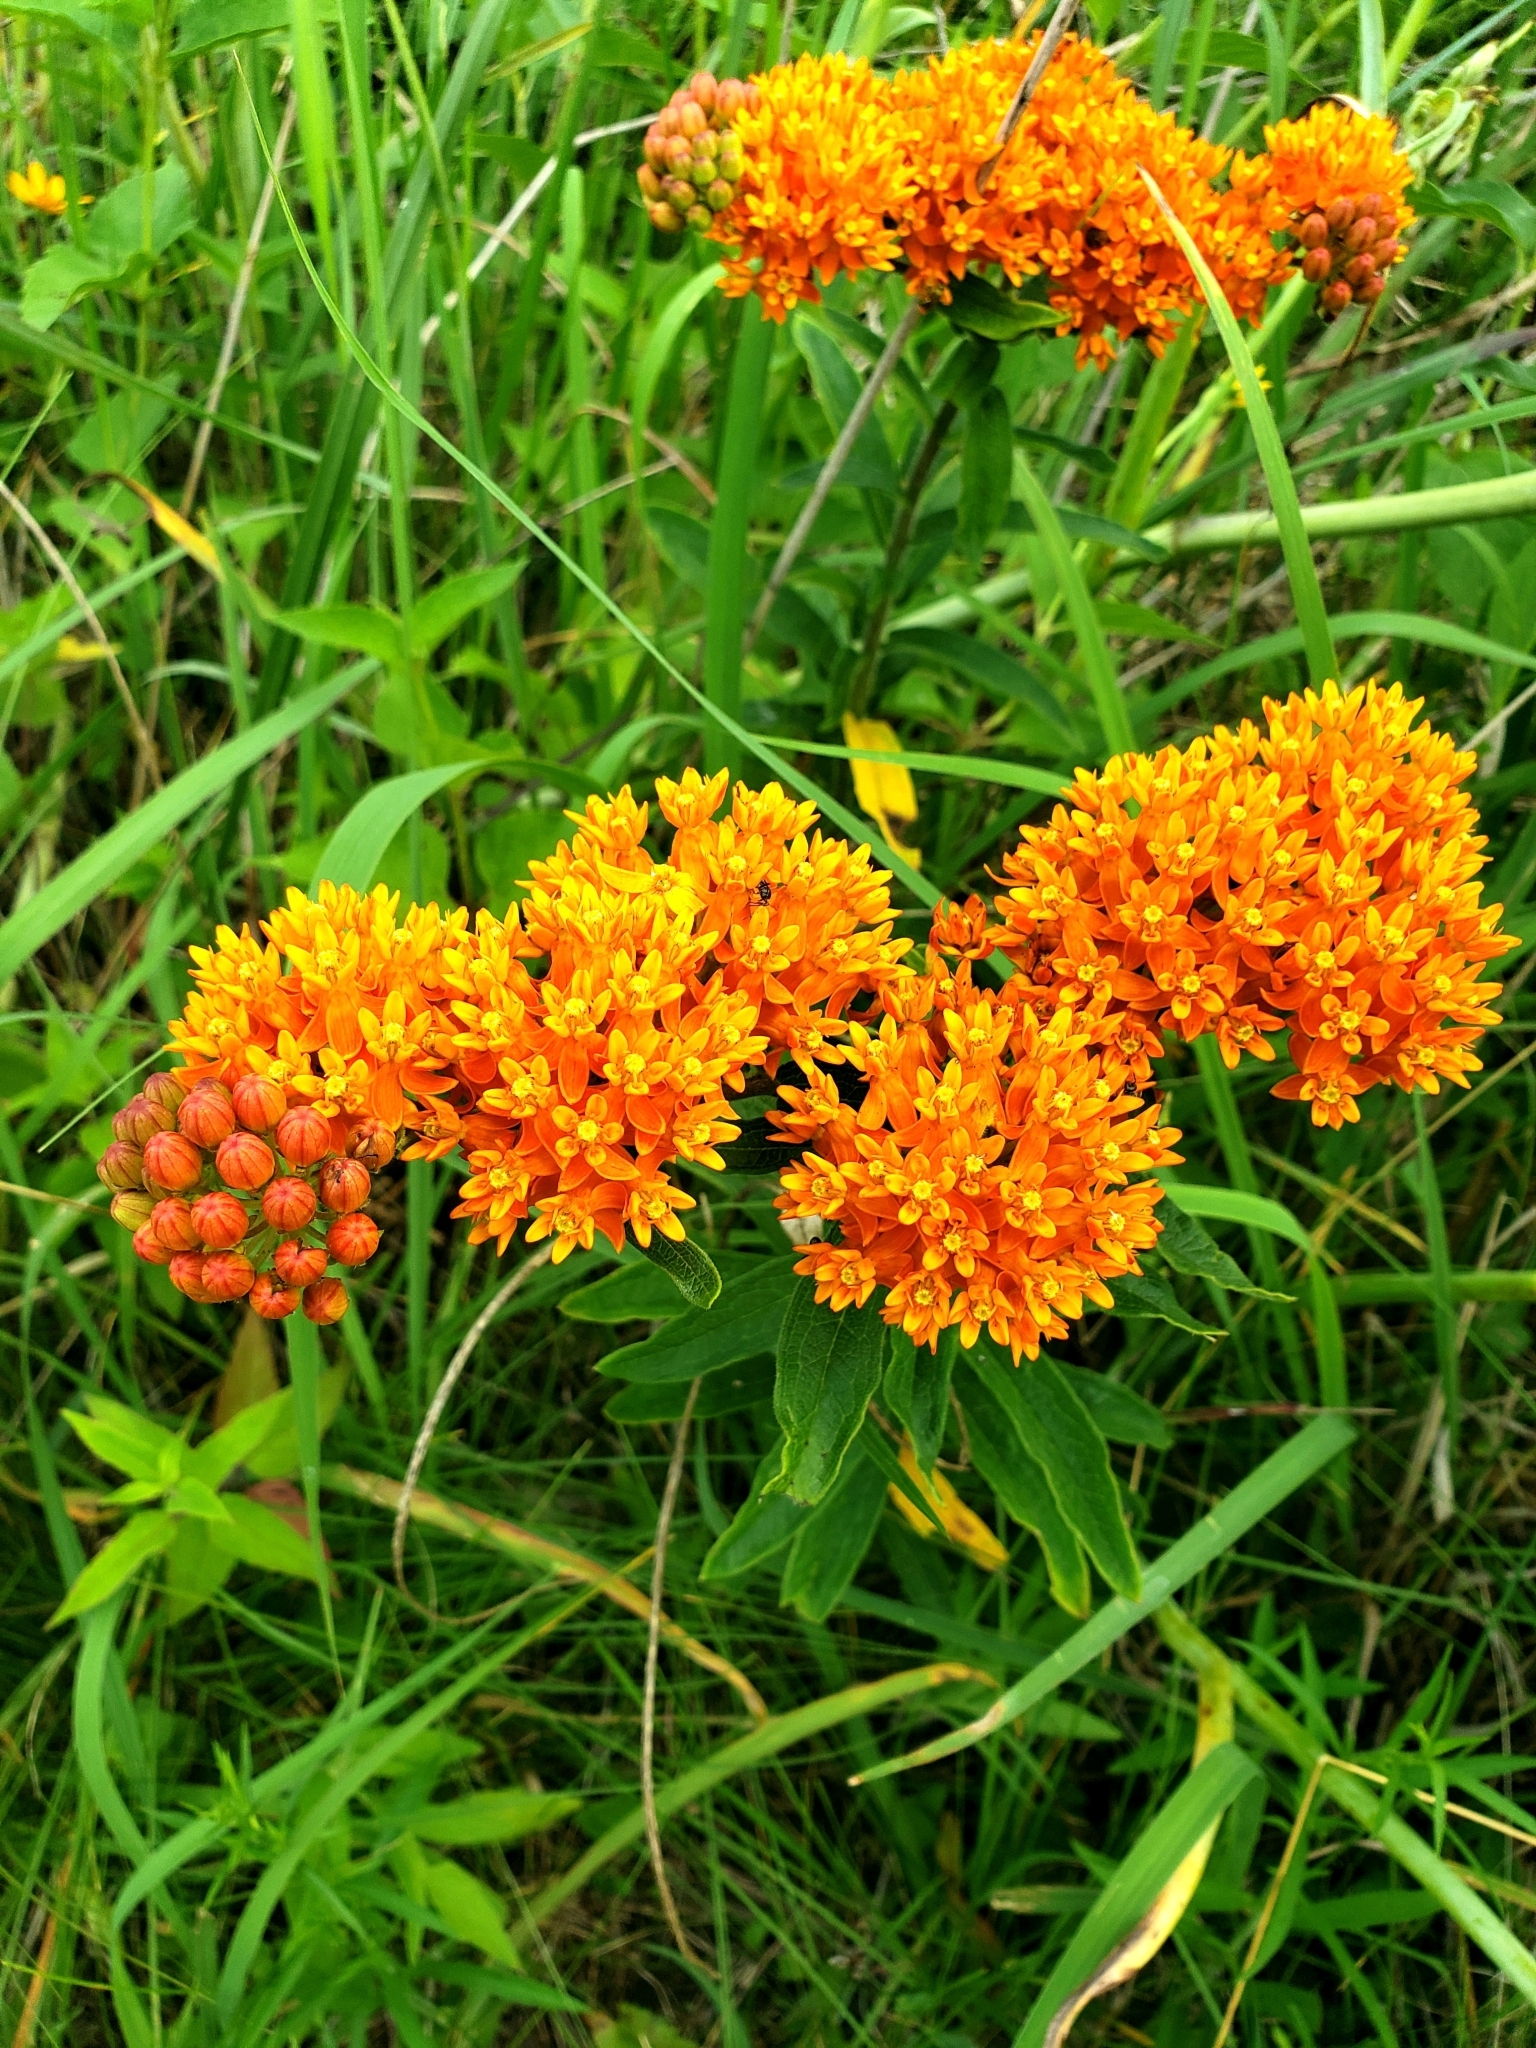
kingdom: Plantae
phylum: Tracheophyta
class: Magnoliopsida
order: Gentianales
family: Apocynaceae
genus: Asclepias
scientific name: Asclepias tuberosa
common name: Butterfly milkweed
